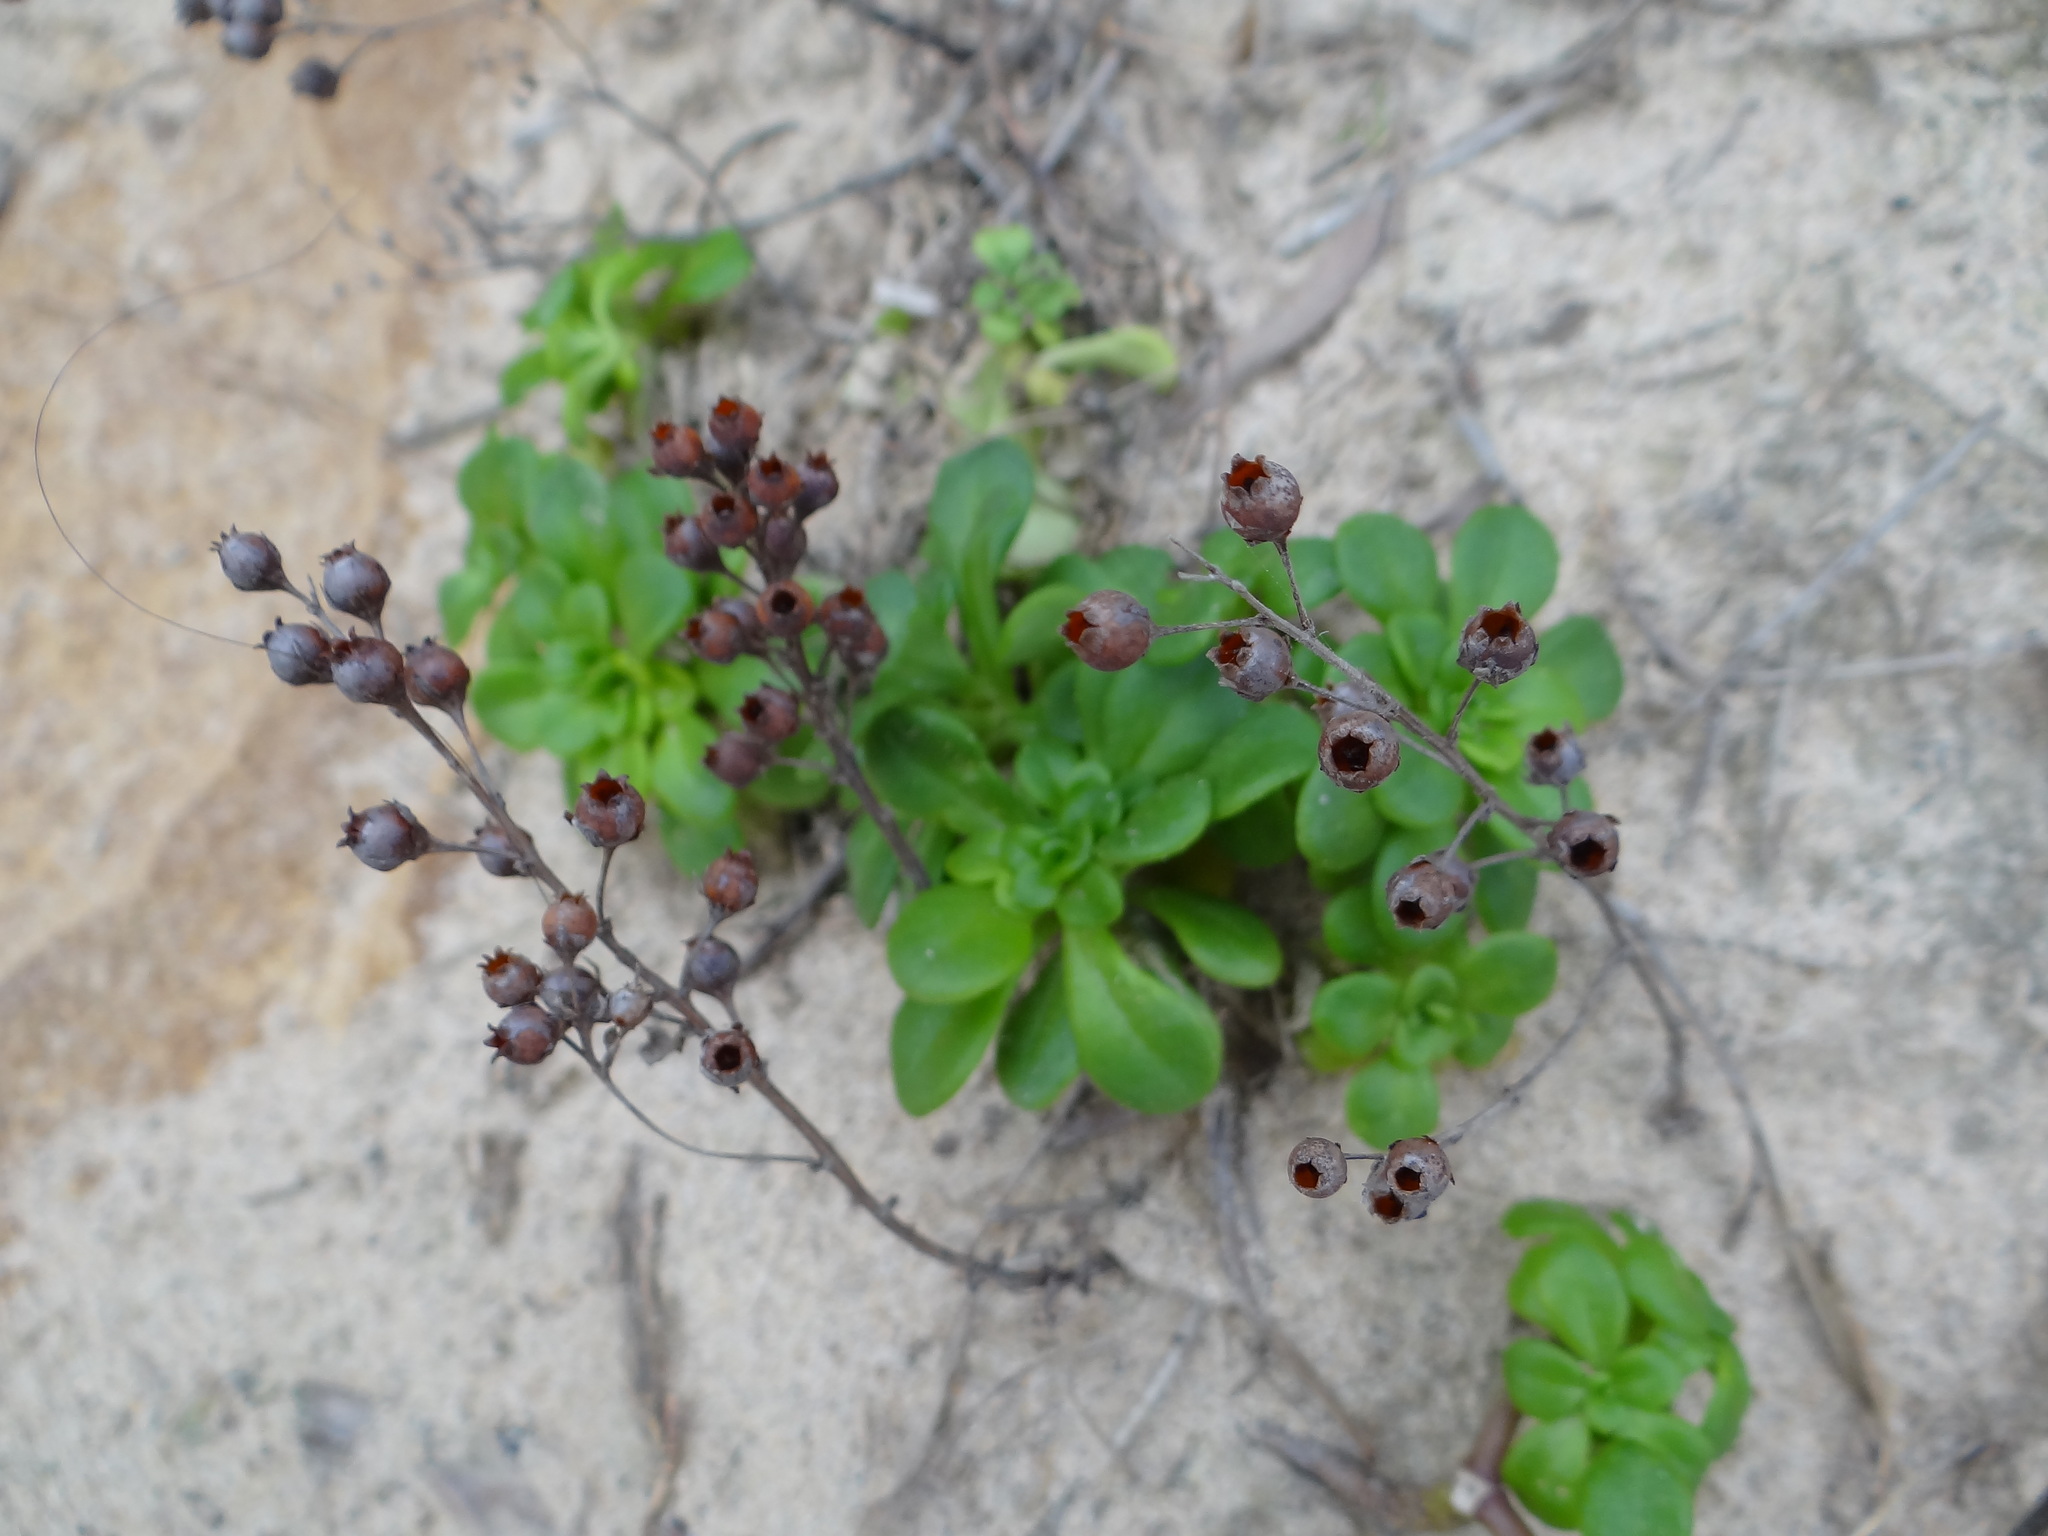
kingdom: Plantae
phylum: Tracheophyta
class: Magnoliopsida
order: Saxifragales
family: Crassulaceae
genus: Sedum
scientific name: Sedum formosanum
